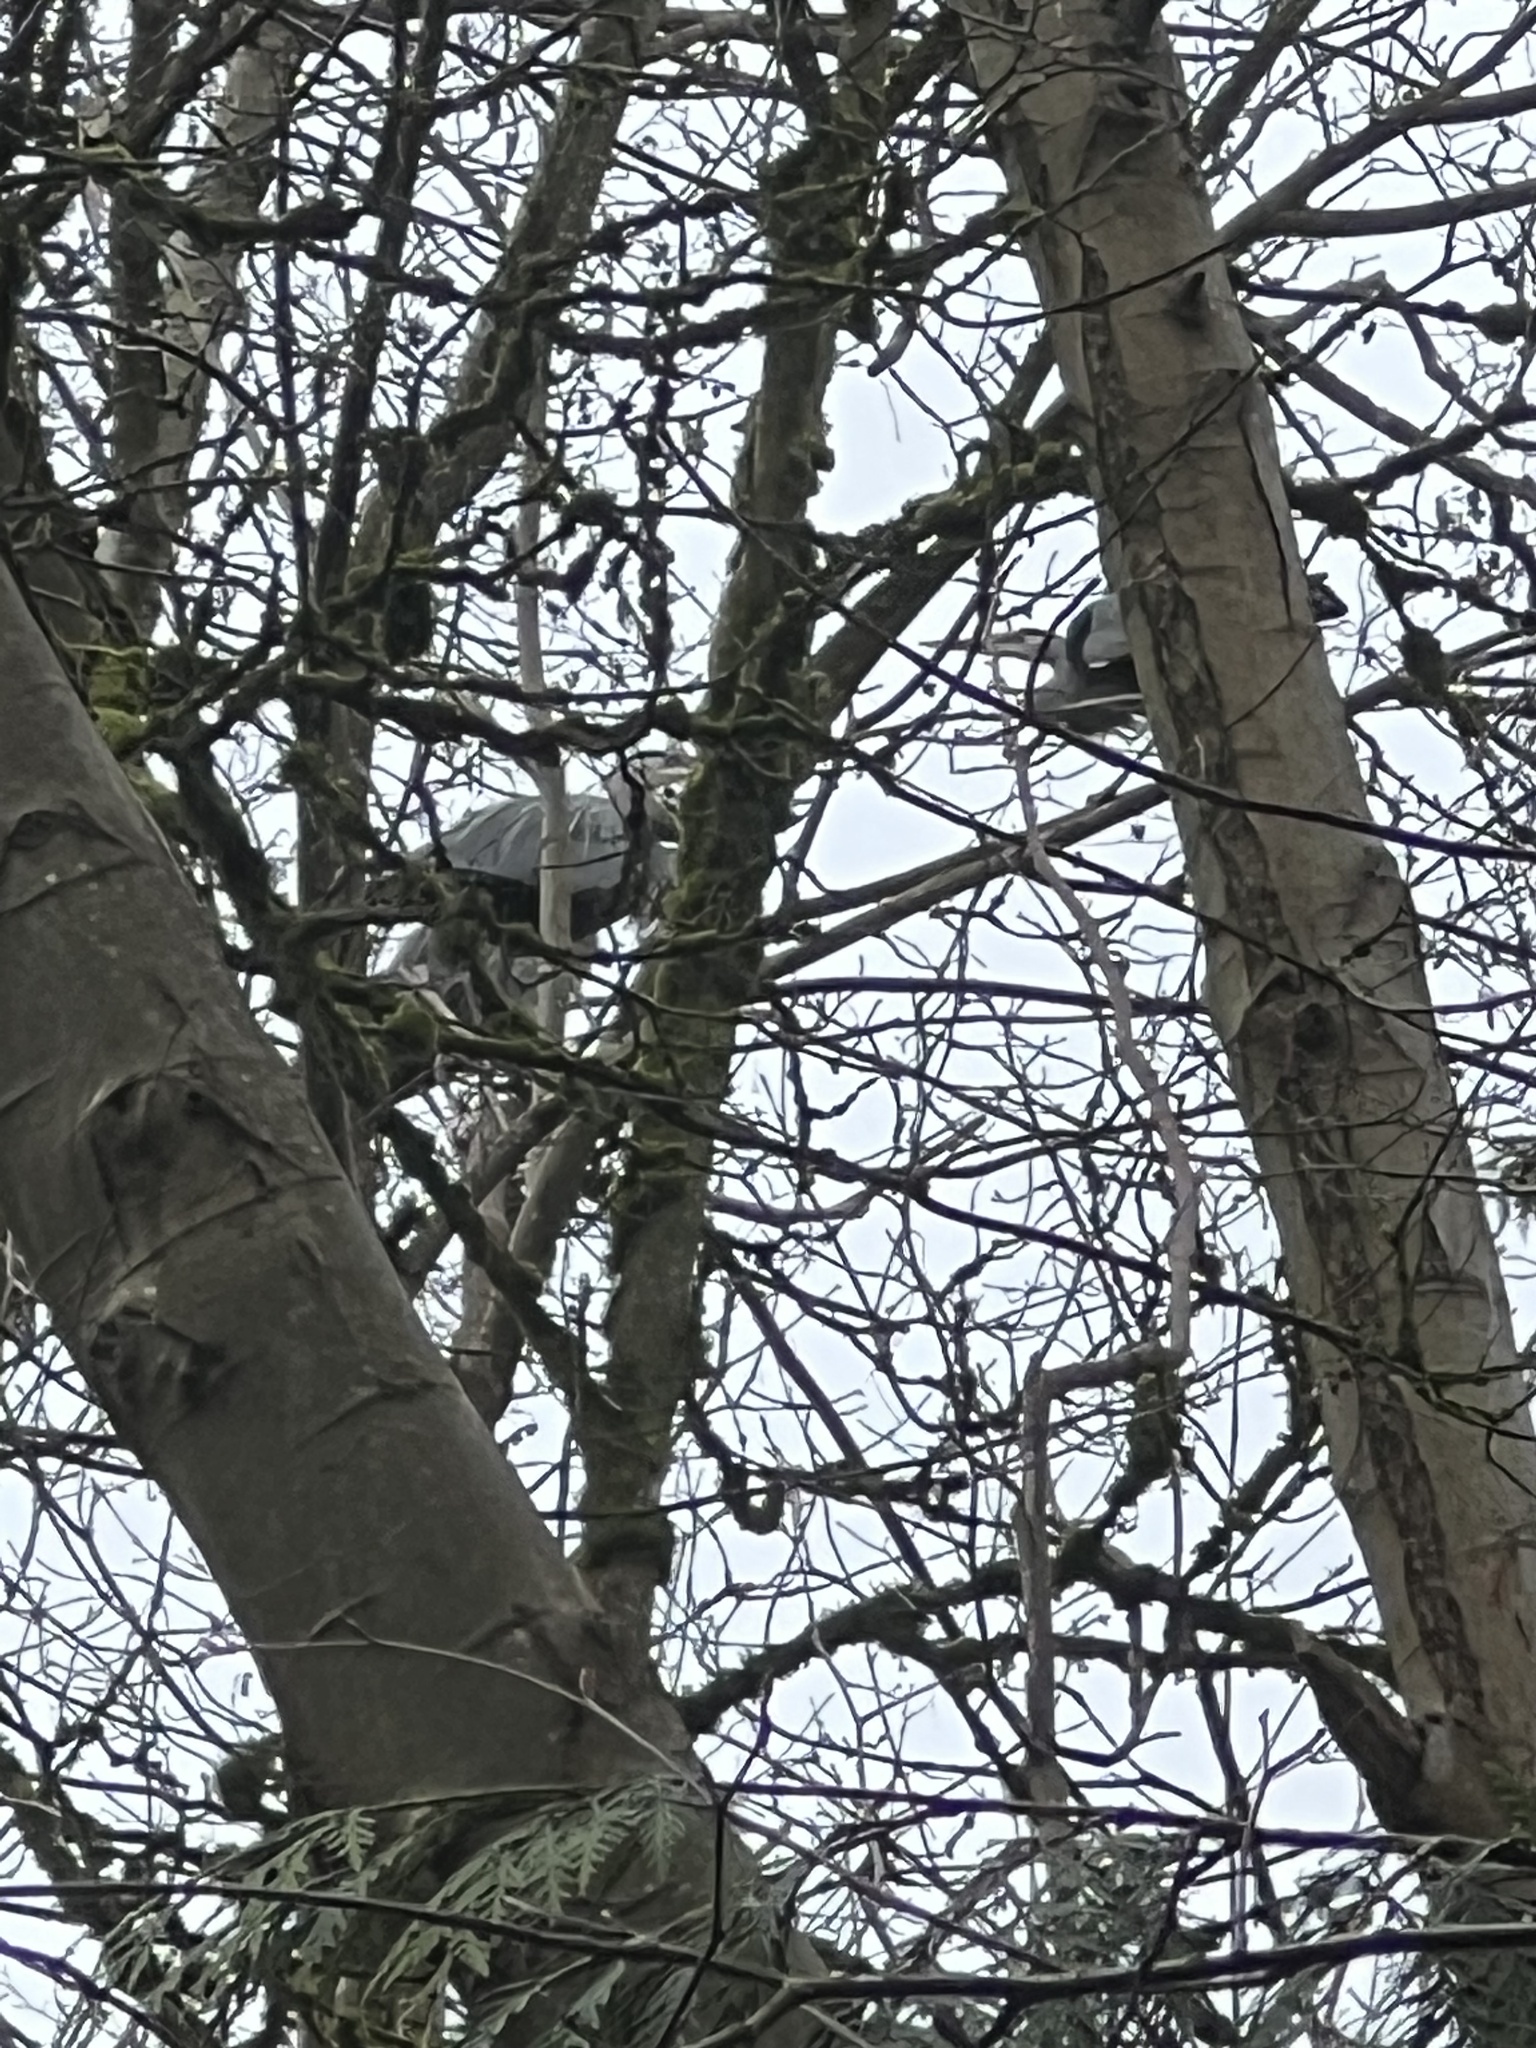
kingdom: Animalia
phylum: Chordata
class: Aves
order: Pelecaniformes
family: Ardeidae
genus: Ardea
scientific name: Ardea herodias
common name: Great blue heron
